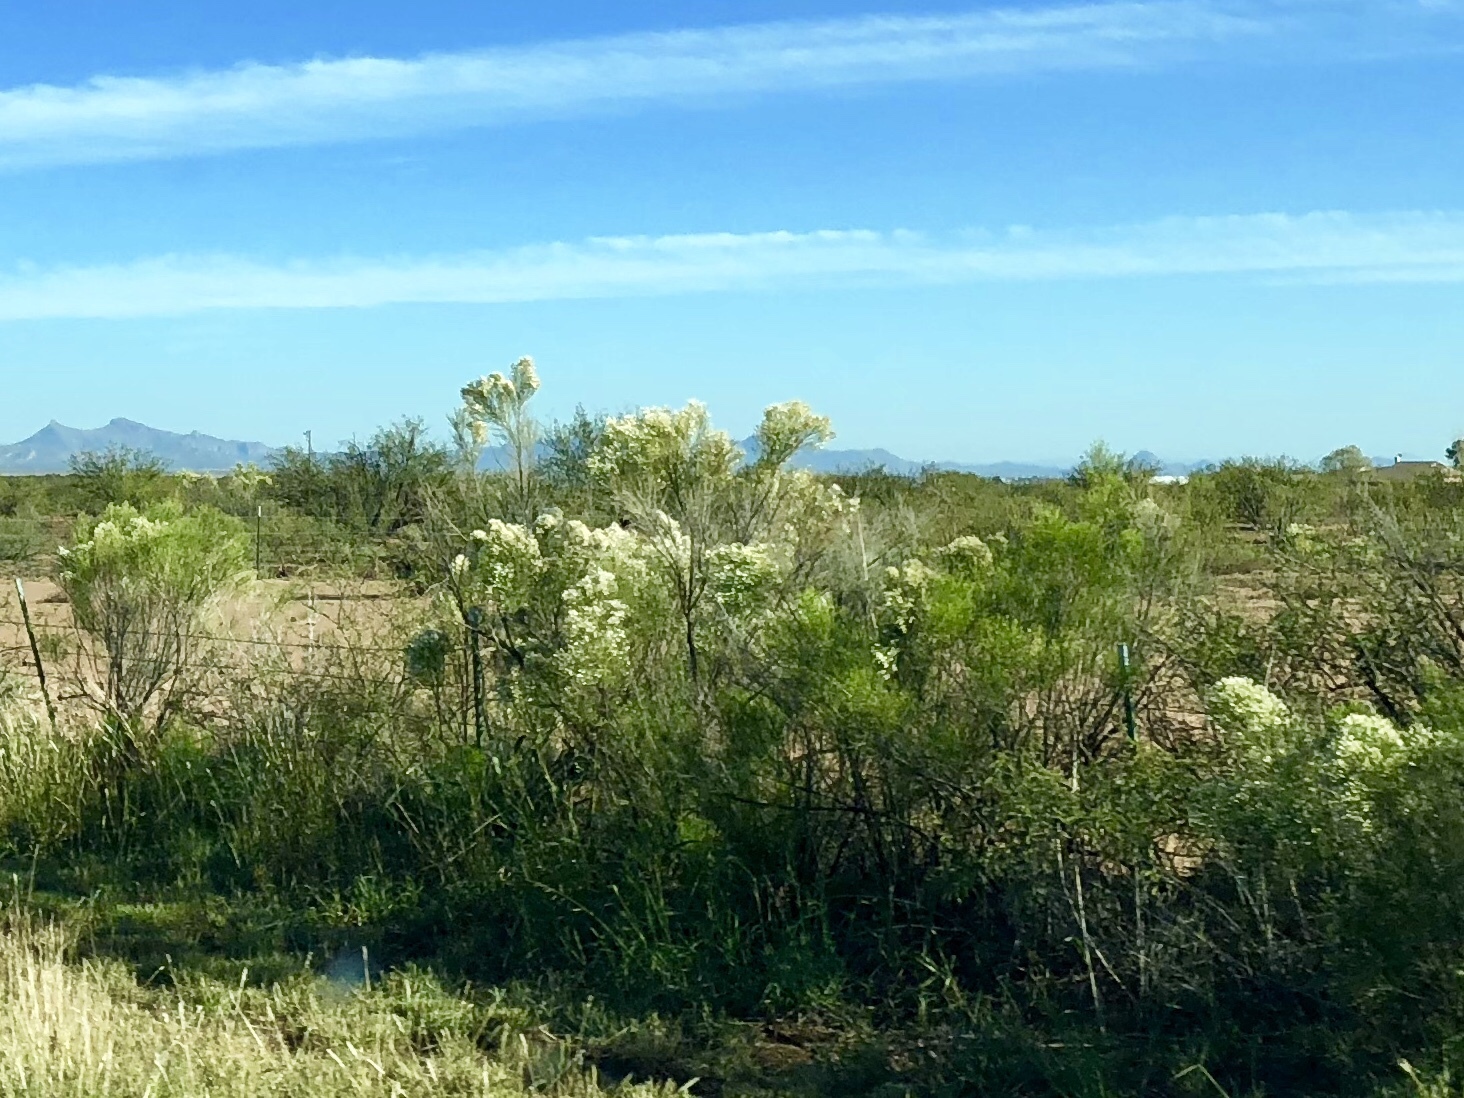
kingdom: Plantae
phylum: Tracheophyta
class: Magnoliopsida
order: Asterales
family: Asteraceae
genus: Baccharis
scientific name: Baccharis sarothroides
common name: Desert-broom
